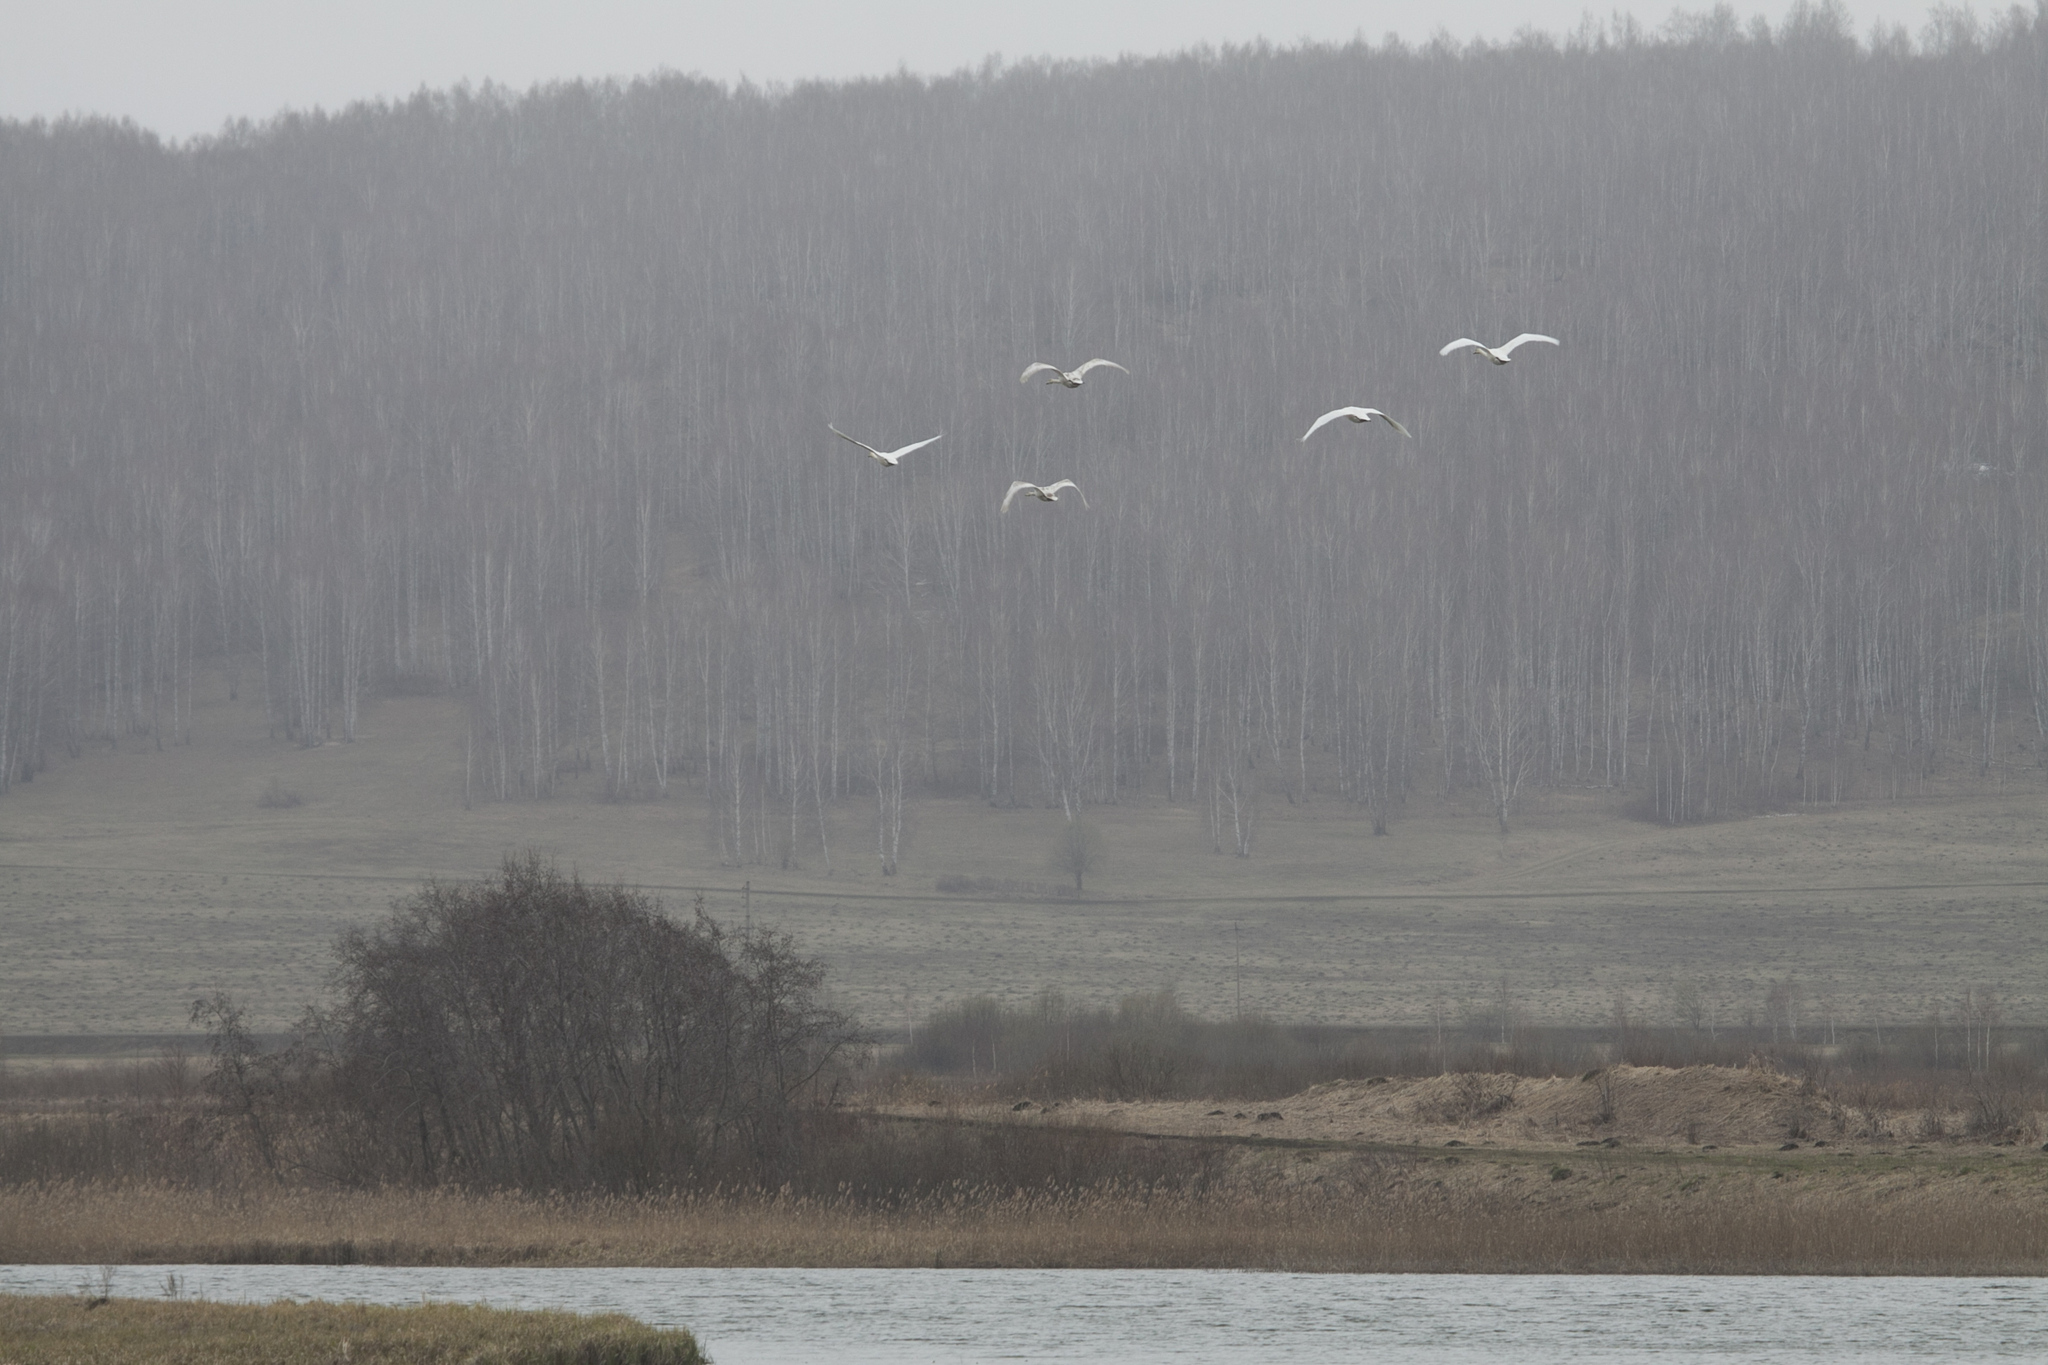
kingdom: Animalia
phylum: Chordata
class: Aves
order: Anseriformes
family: Anatidae
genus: Cygnus
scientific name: Cygnus olor
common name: Mute swan
